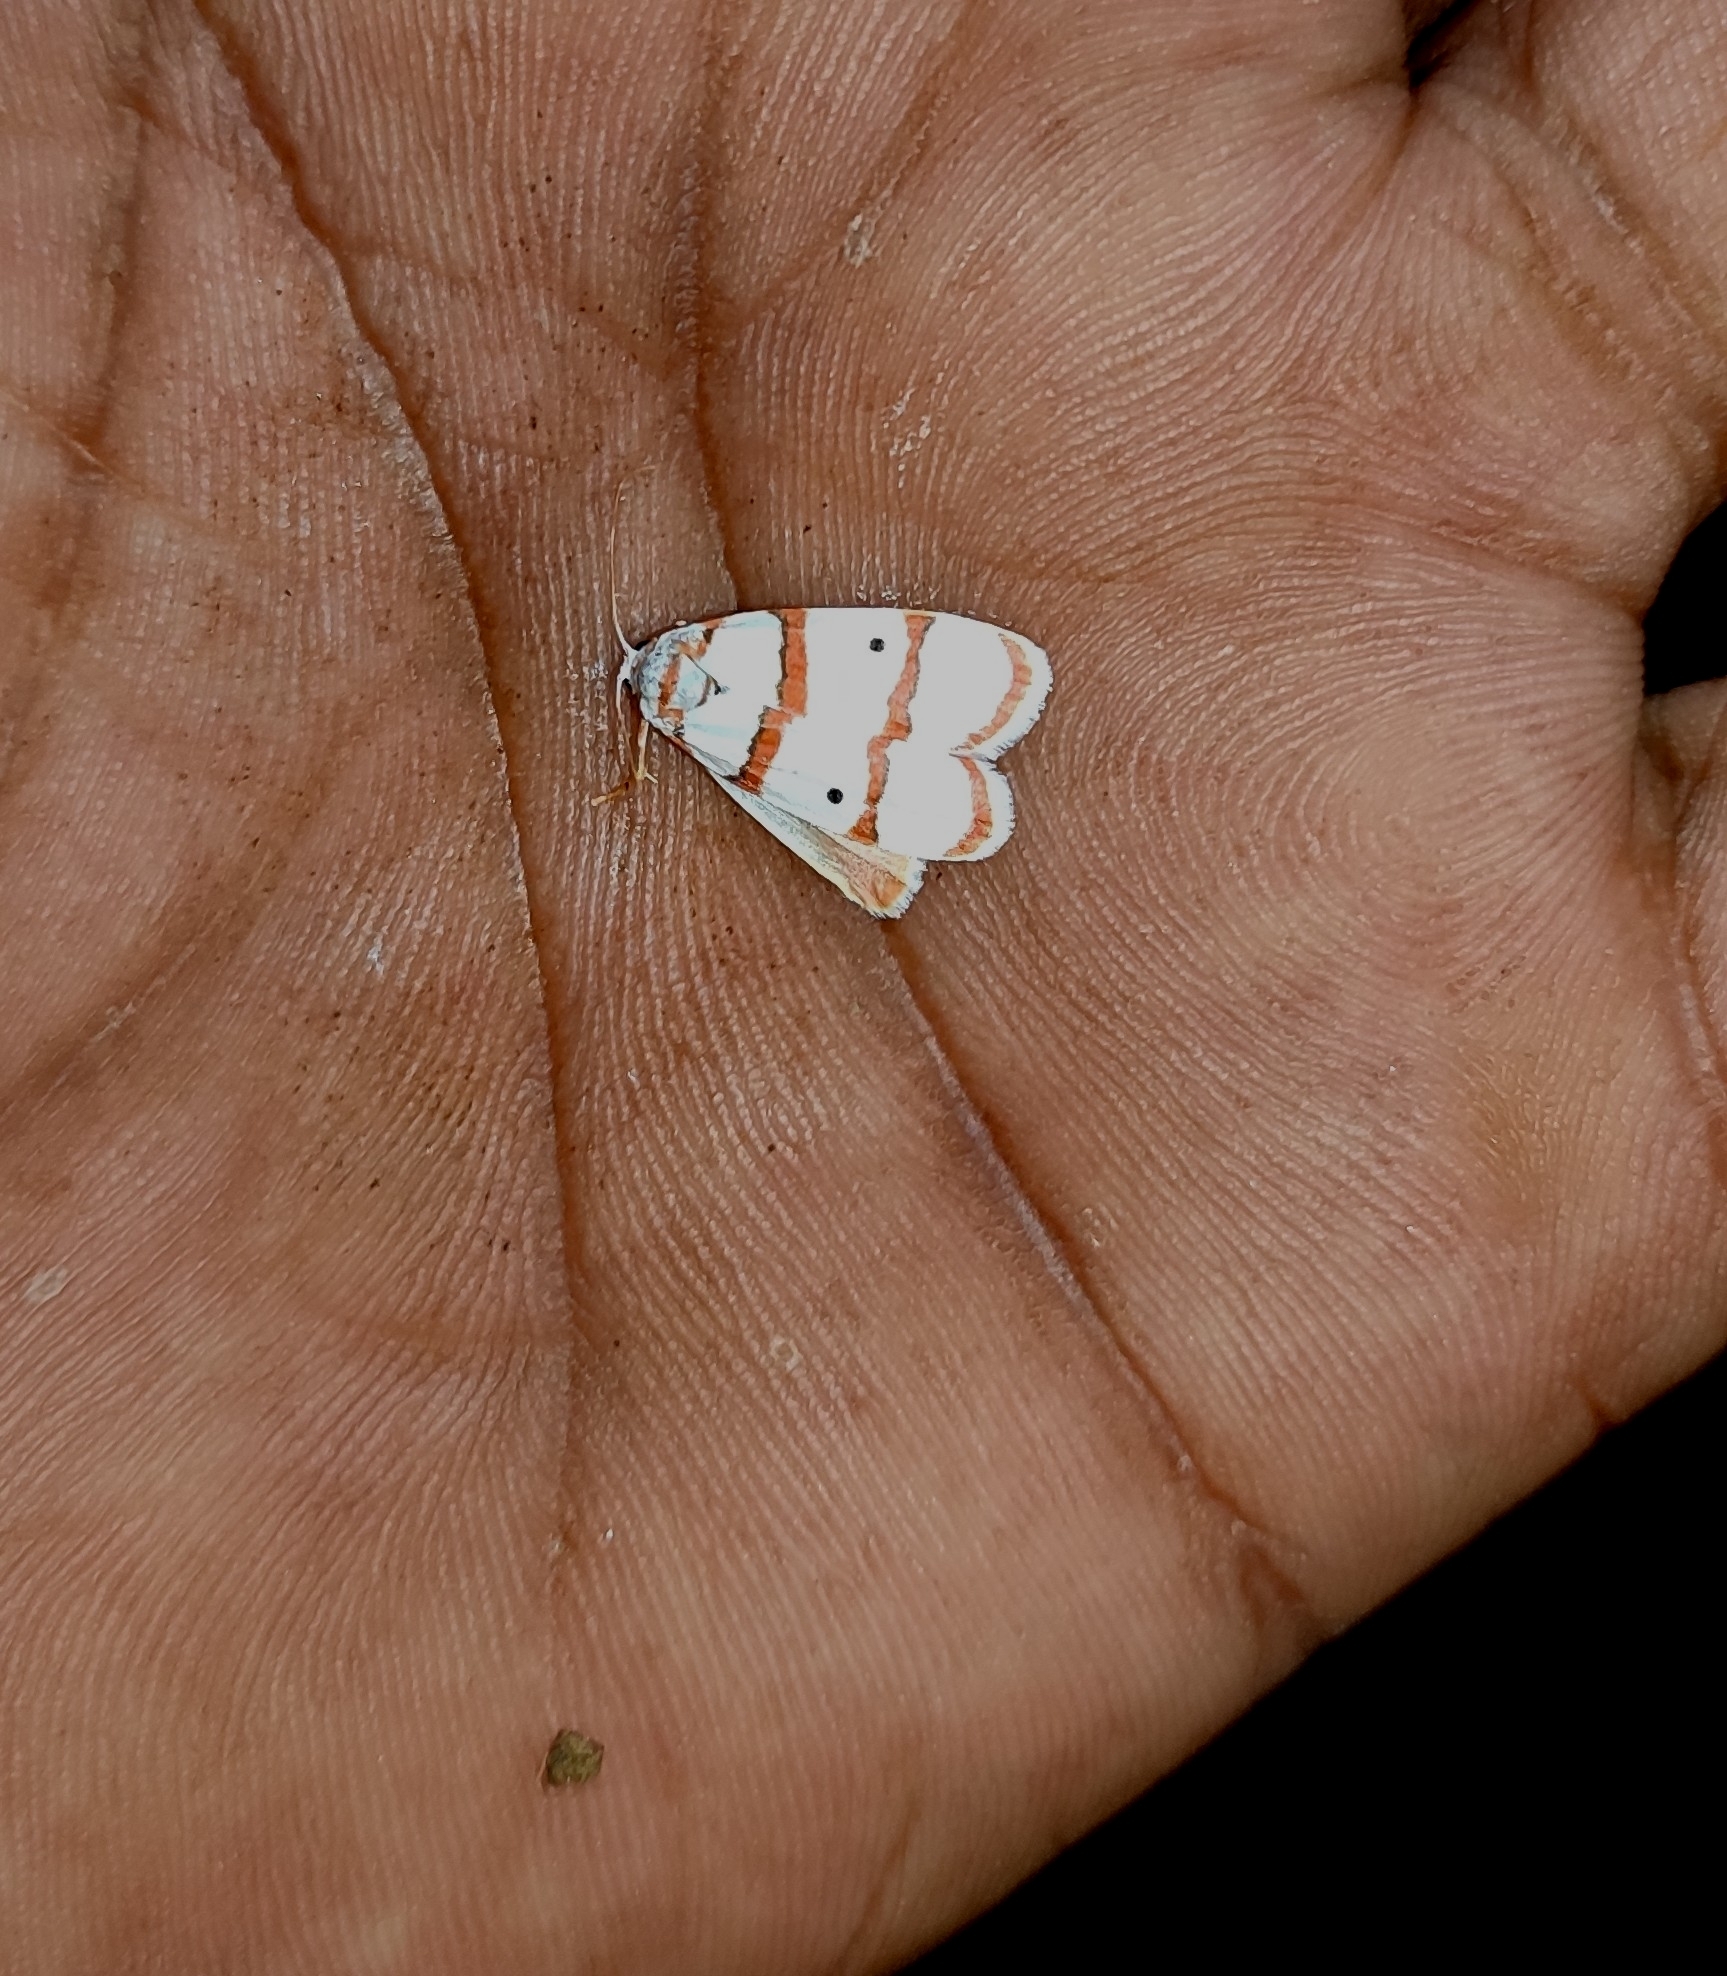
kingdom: Animalia
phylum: Arthropoda
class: Insecta
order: Lepidoptera
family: Erebidae
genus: Cyana
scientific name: Cyana peregrina
